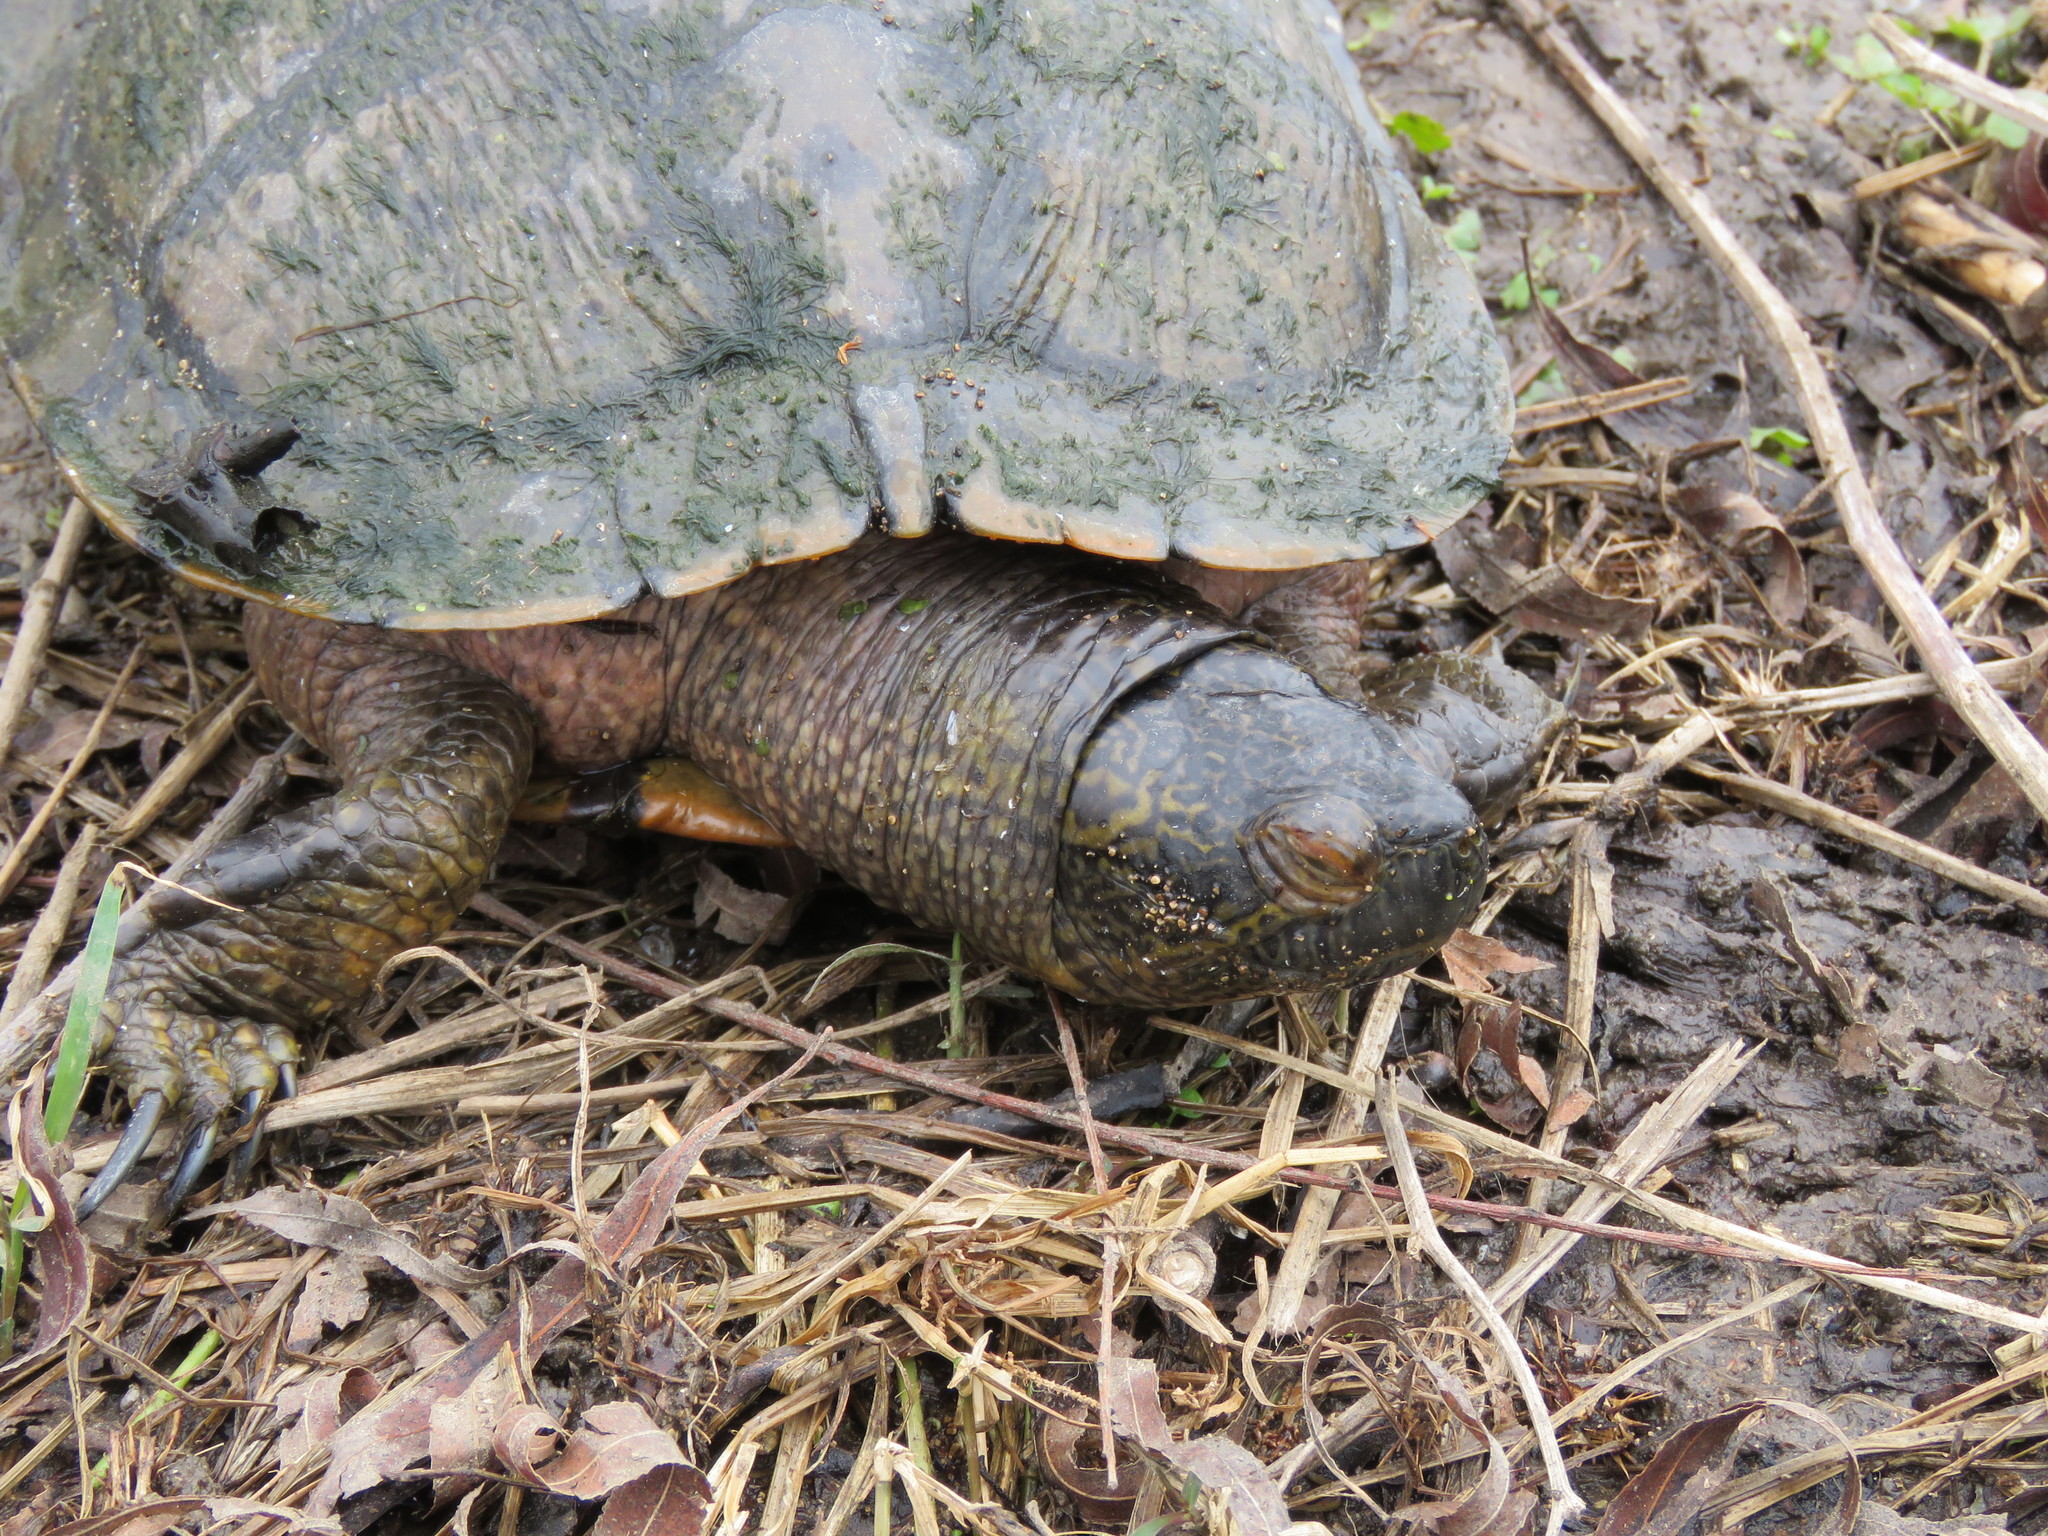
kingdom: Animalia
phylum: Chordata
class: Testudines
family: Emydidae
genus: Trachemys
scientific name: Trachemys scripta
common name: Slider
